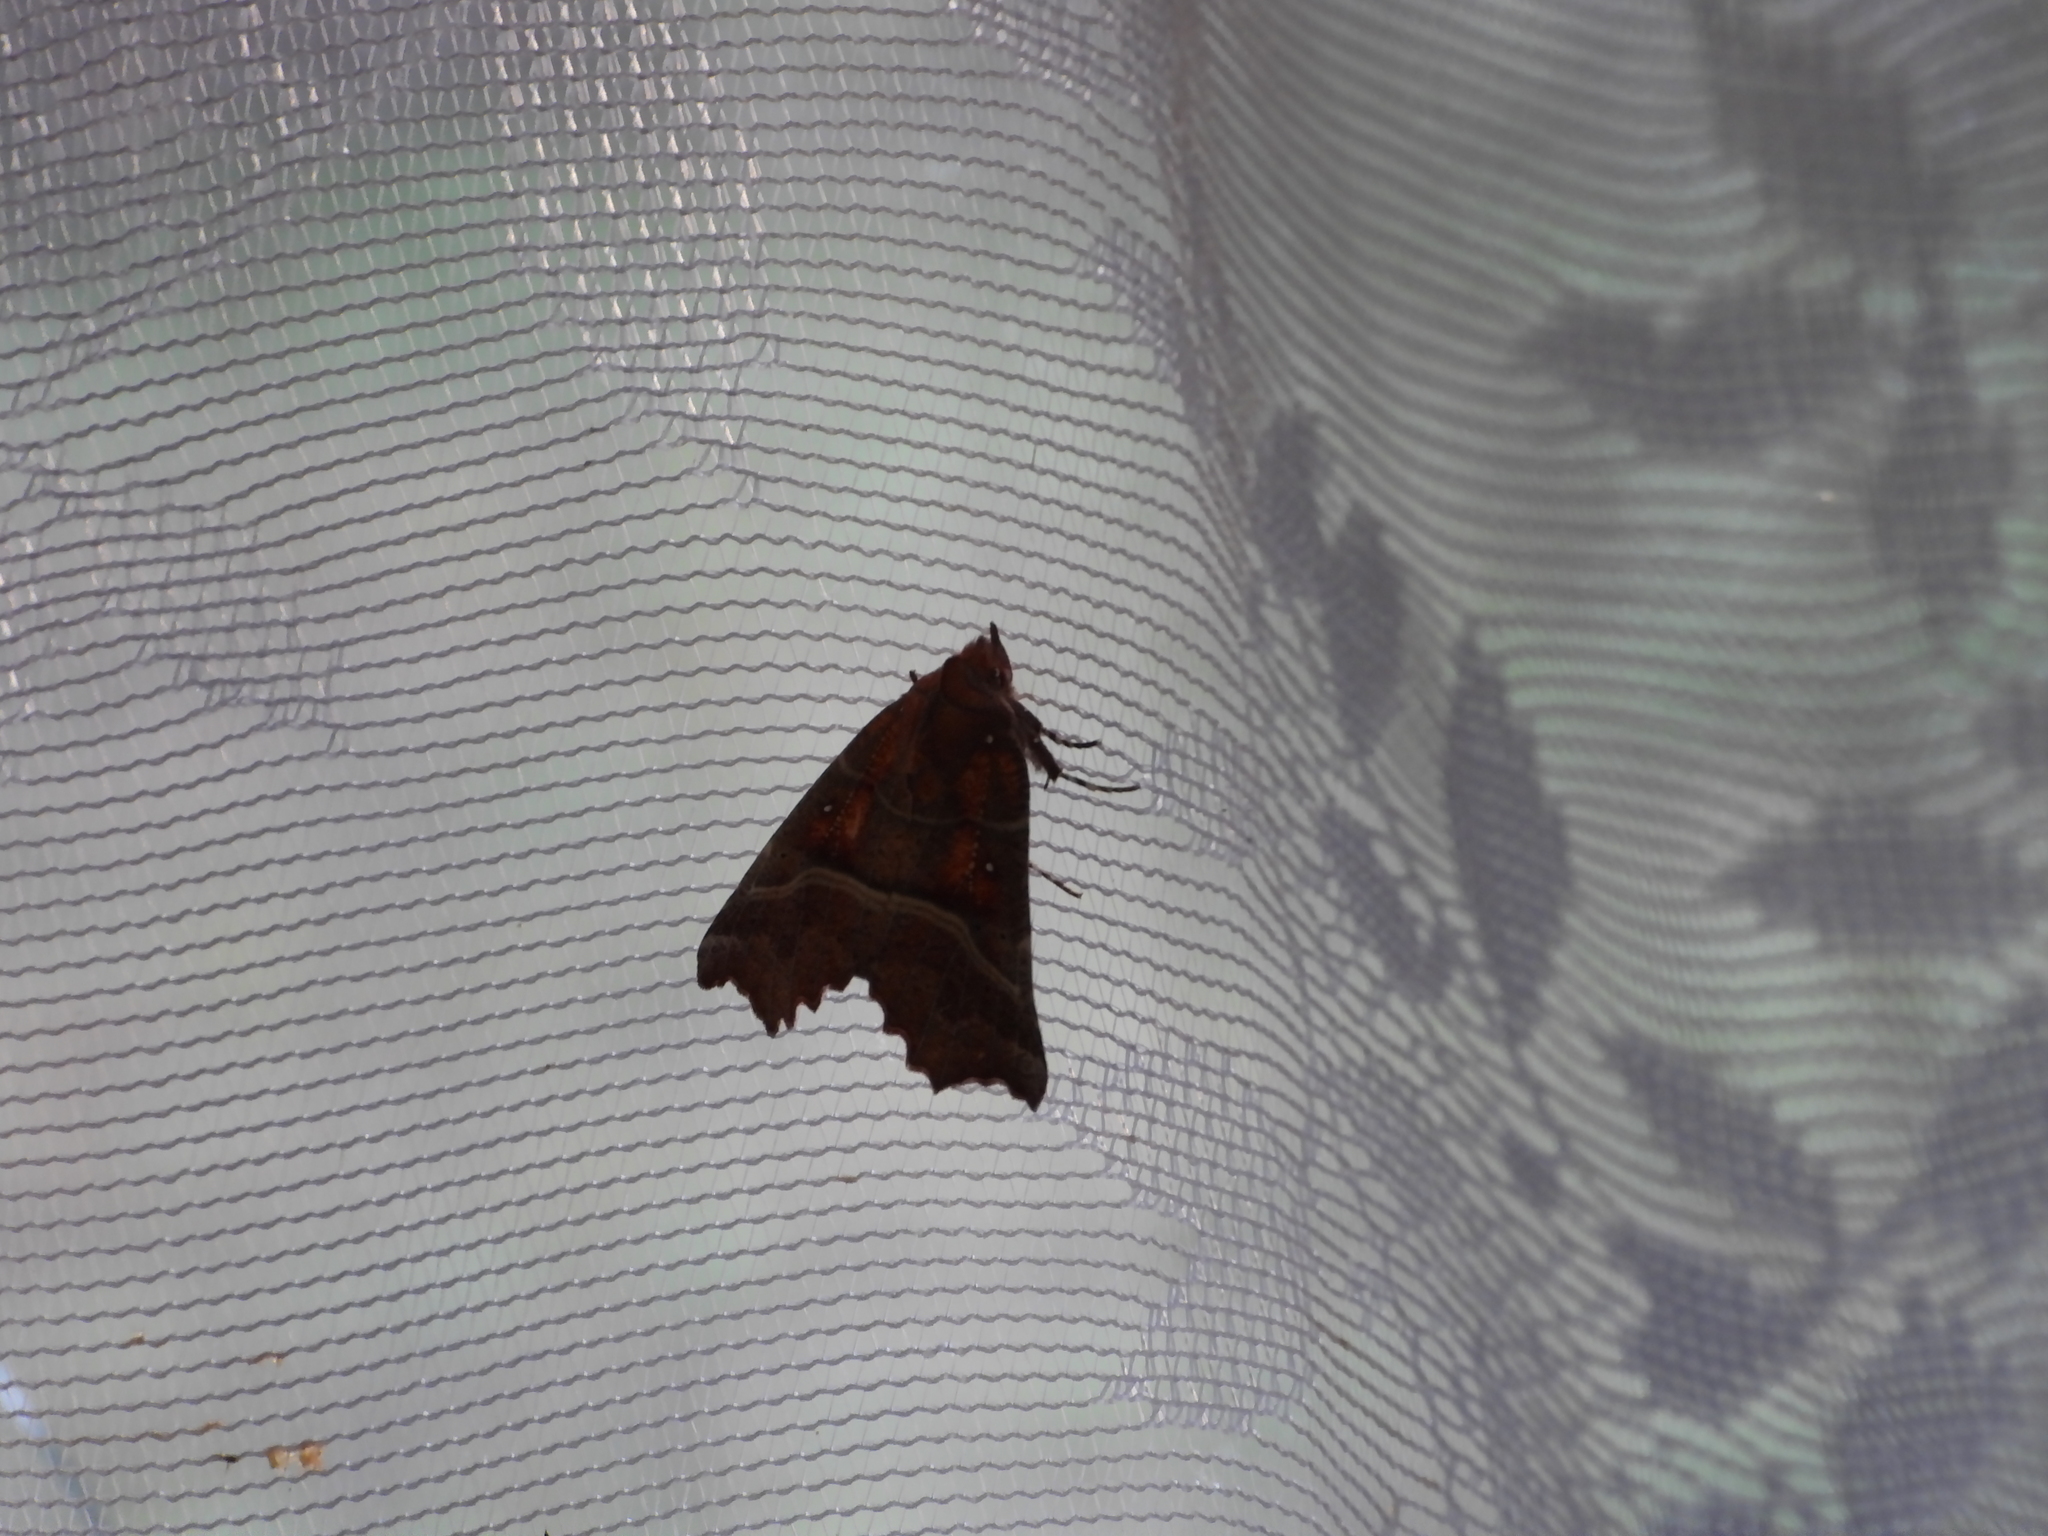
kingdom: Animalia
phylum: Arthropoda
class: Insecta
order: Lepidoptera
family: Erebidae
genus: Scoliopteryx
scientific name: Scoliopteryx libatrix
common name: Herald
